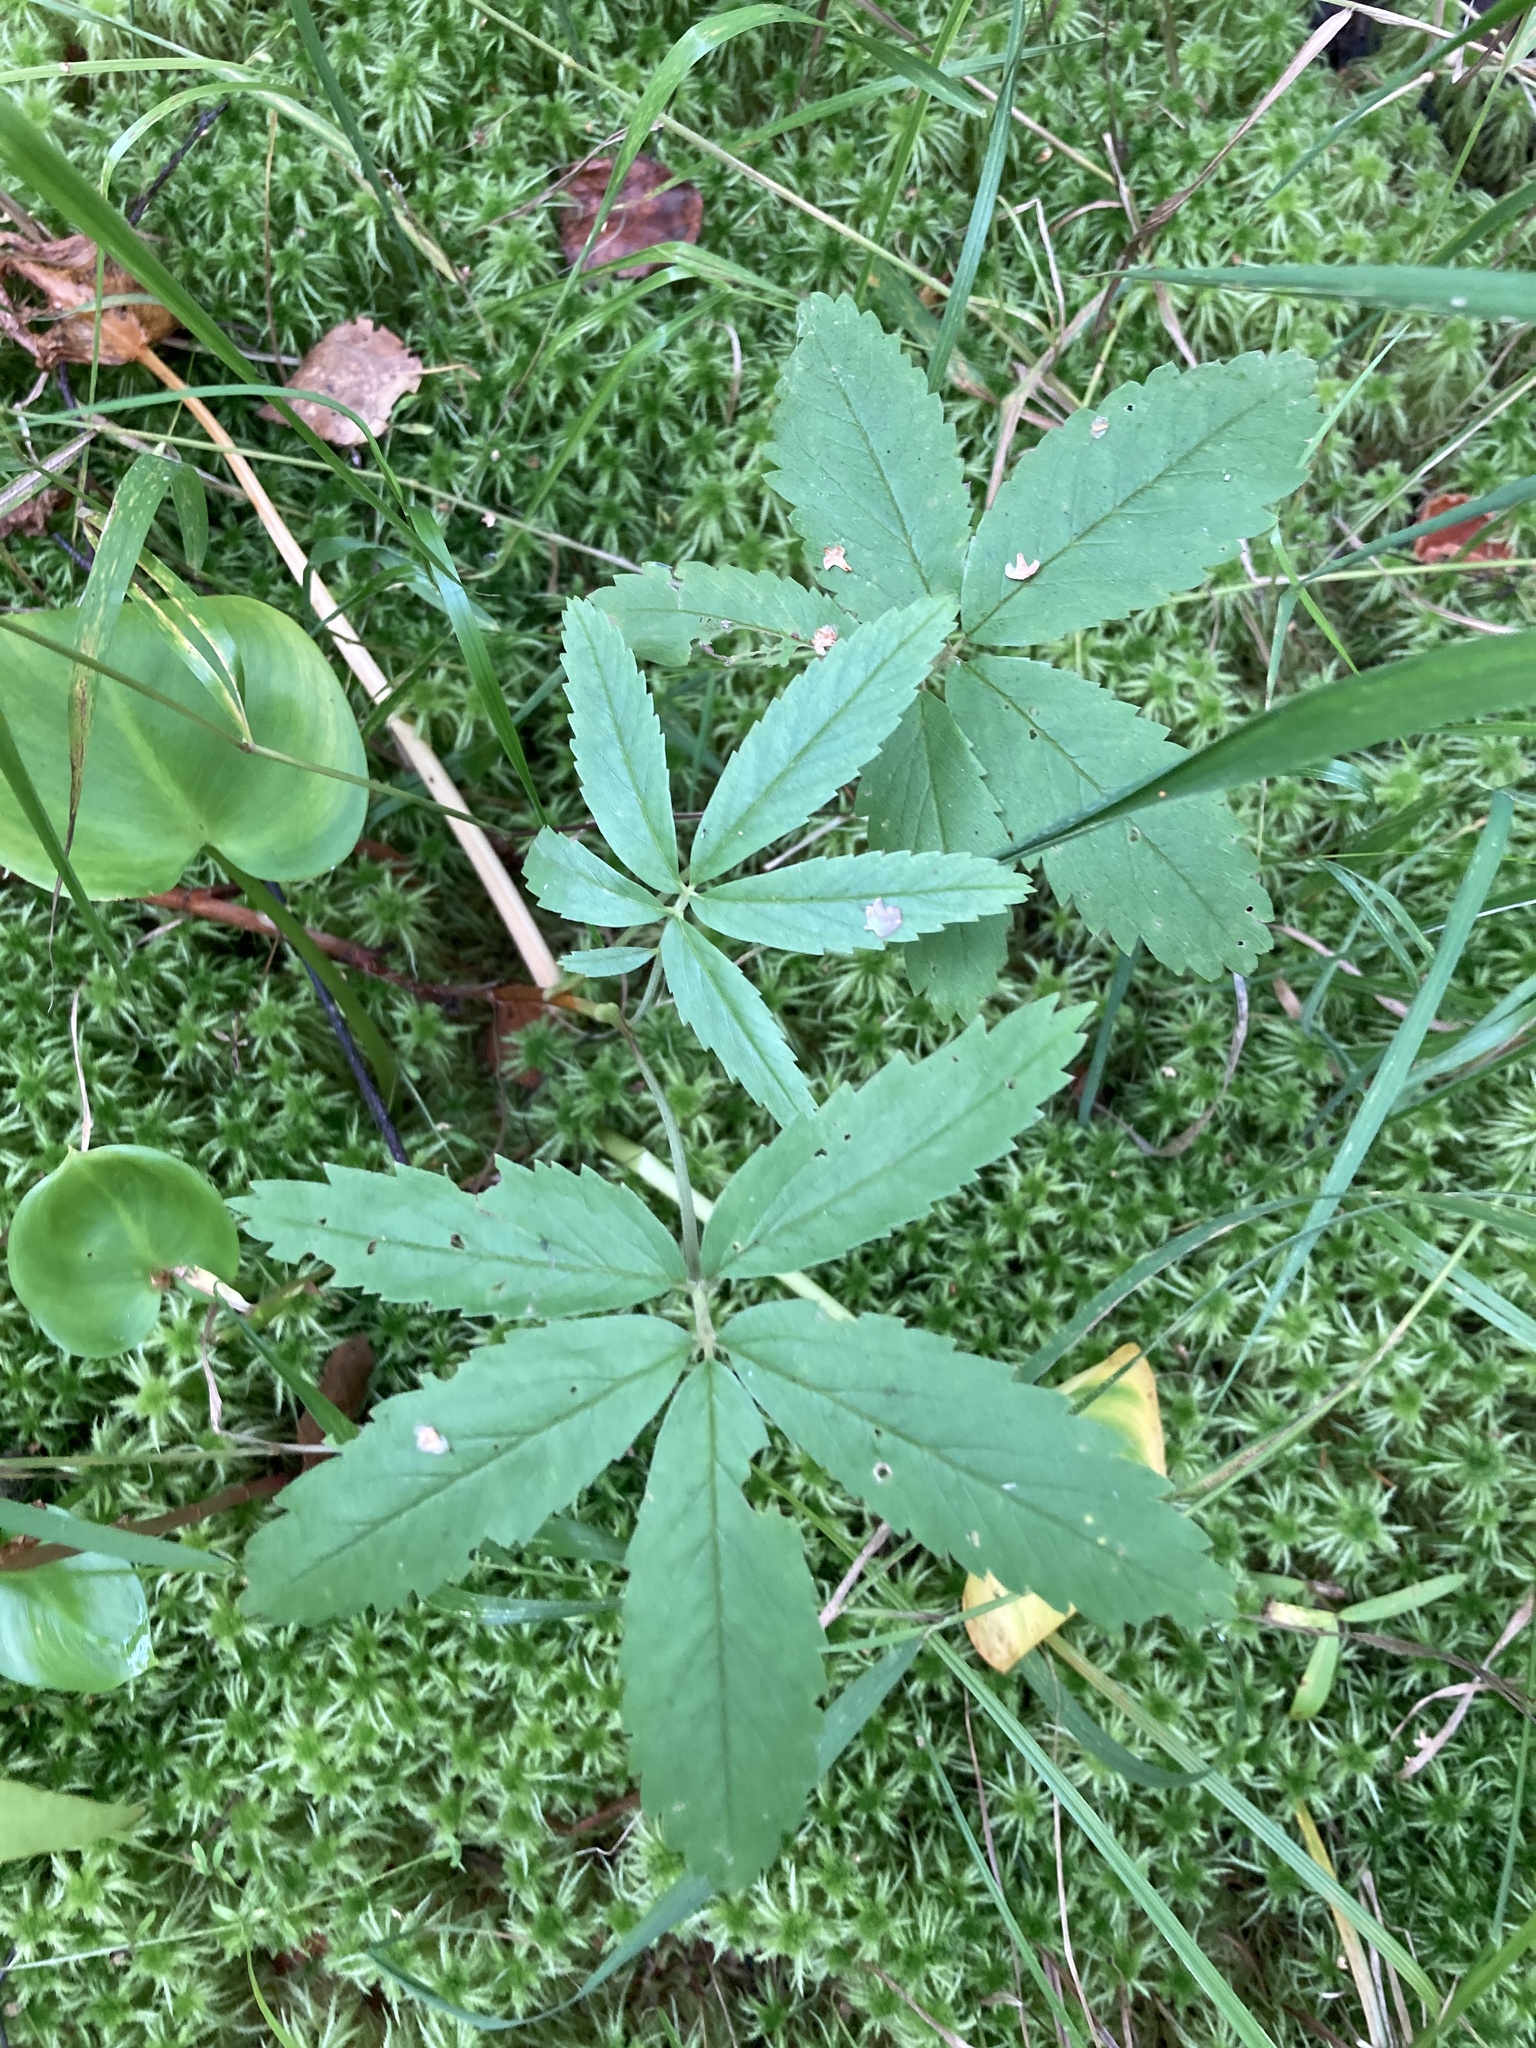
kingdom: Plantae
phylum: Tracheophyta
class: Magnoliopsida
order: Rosales
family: Rosaceae
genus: Comarum
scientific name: Comarum palustre
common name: Marsh cinquefoil
